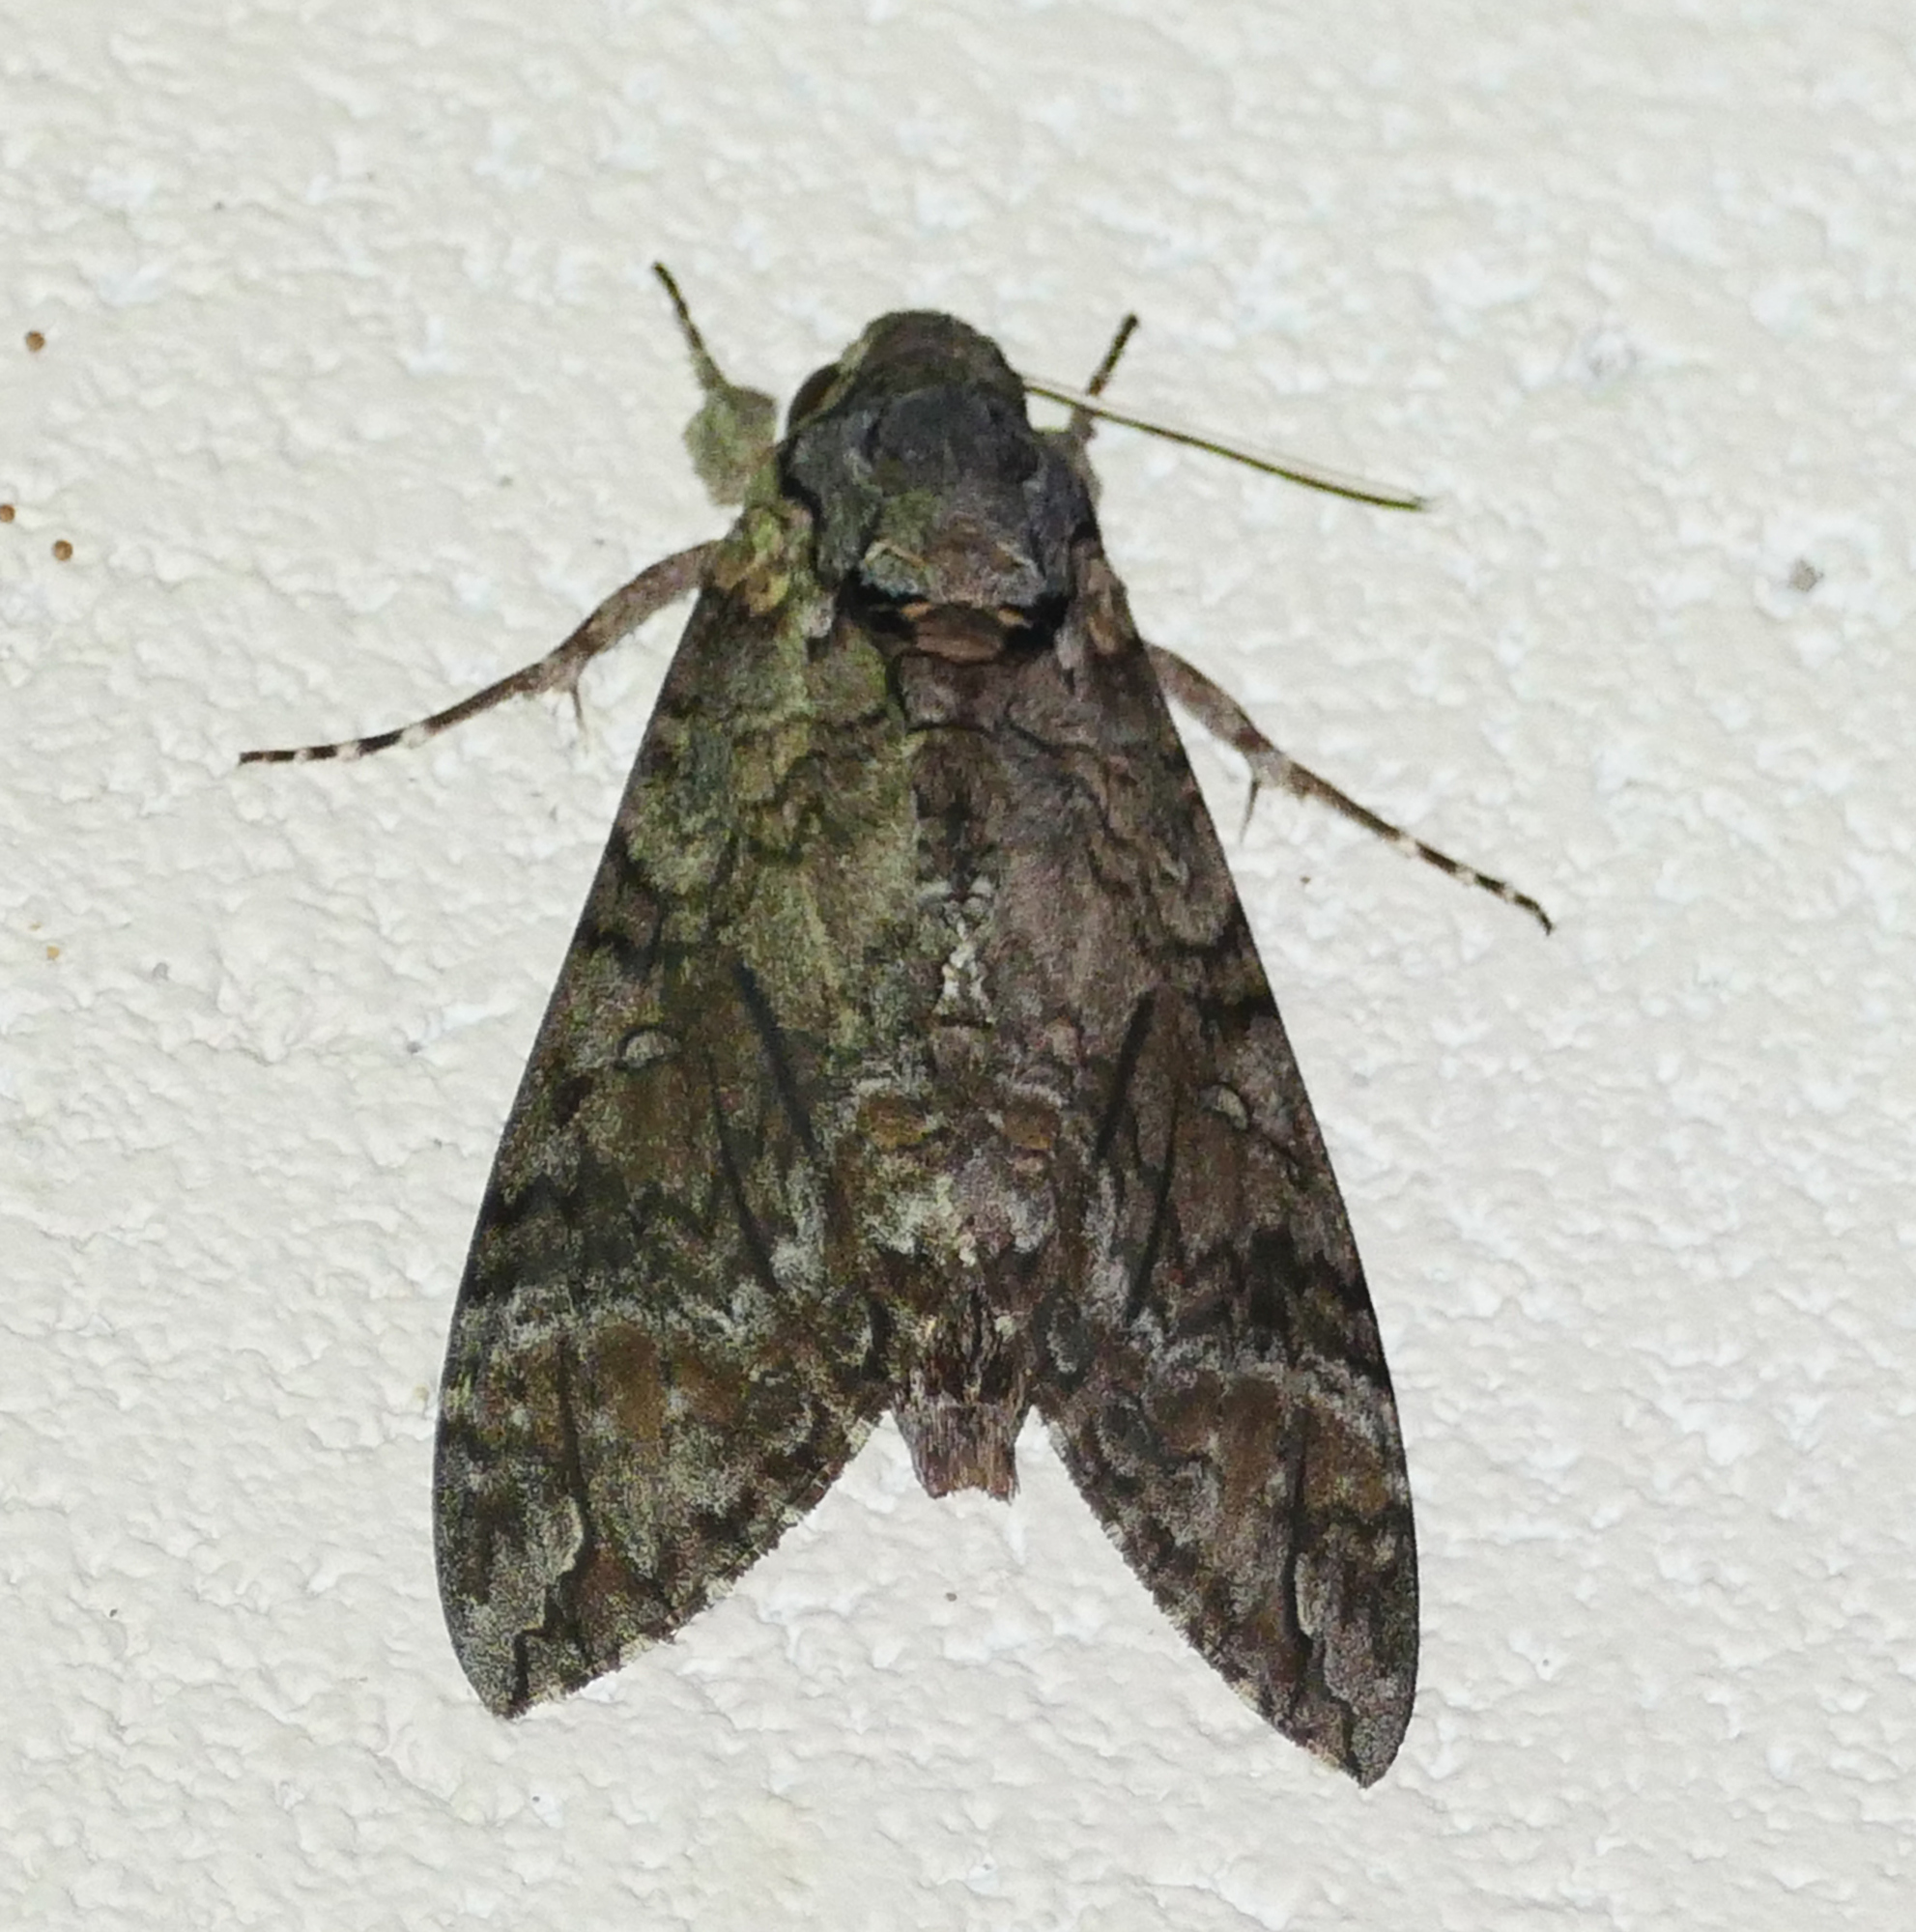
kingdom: Animalia
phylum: Arthropoda
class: Insecta
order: Lepidoptera
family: Sphingidae
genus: Agrius
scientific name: Agrius cingulata
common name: Pink-spotted hawkmoth
